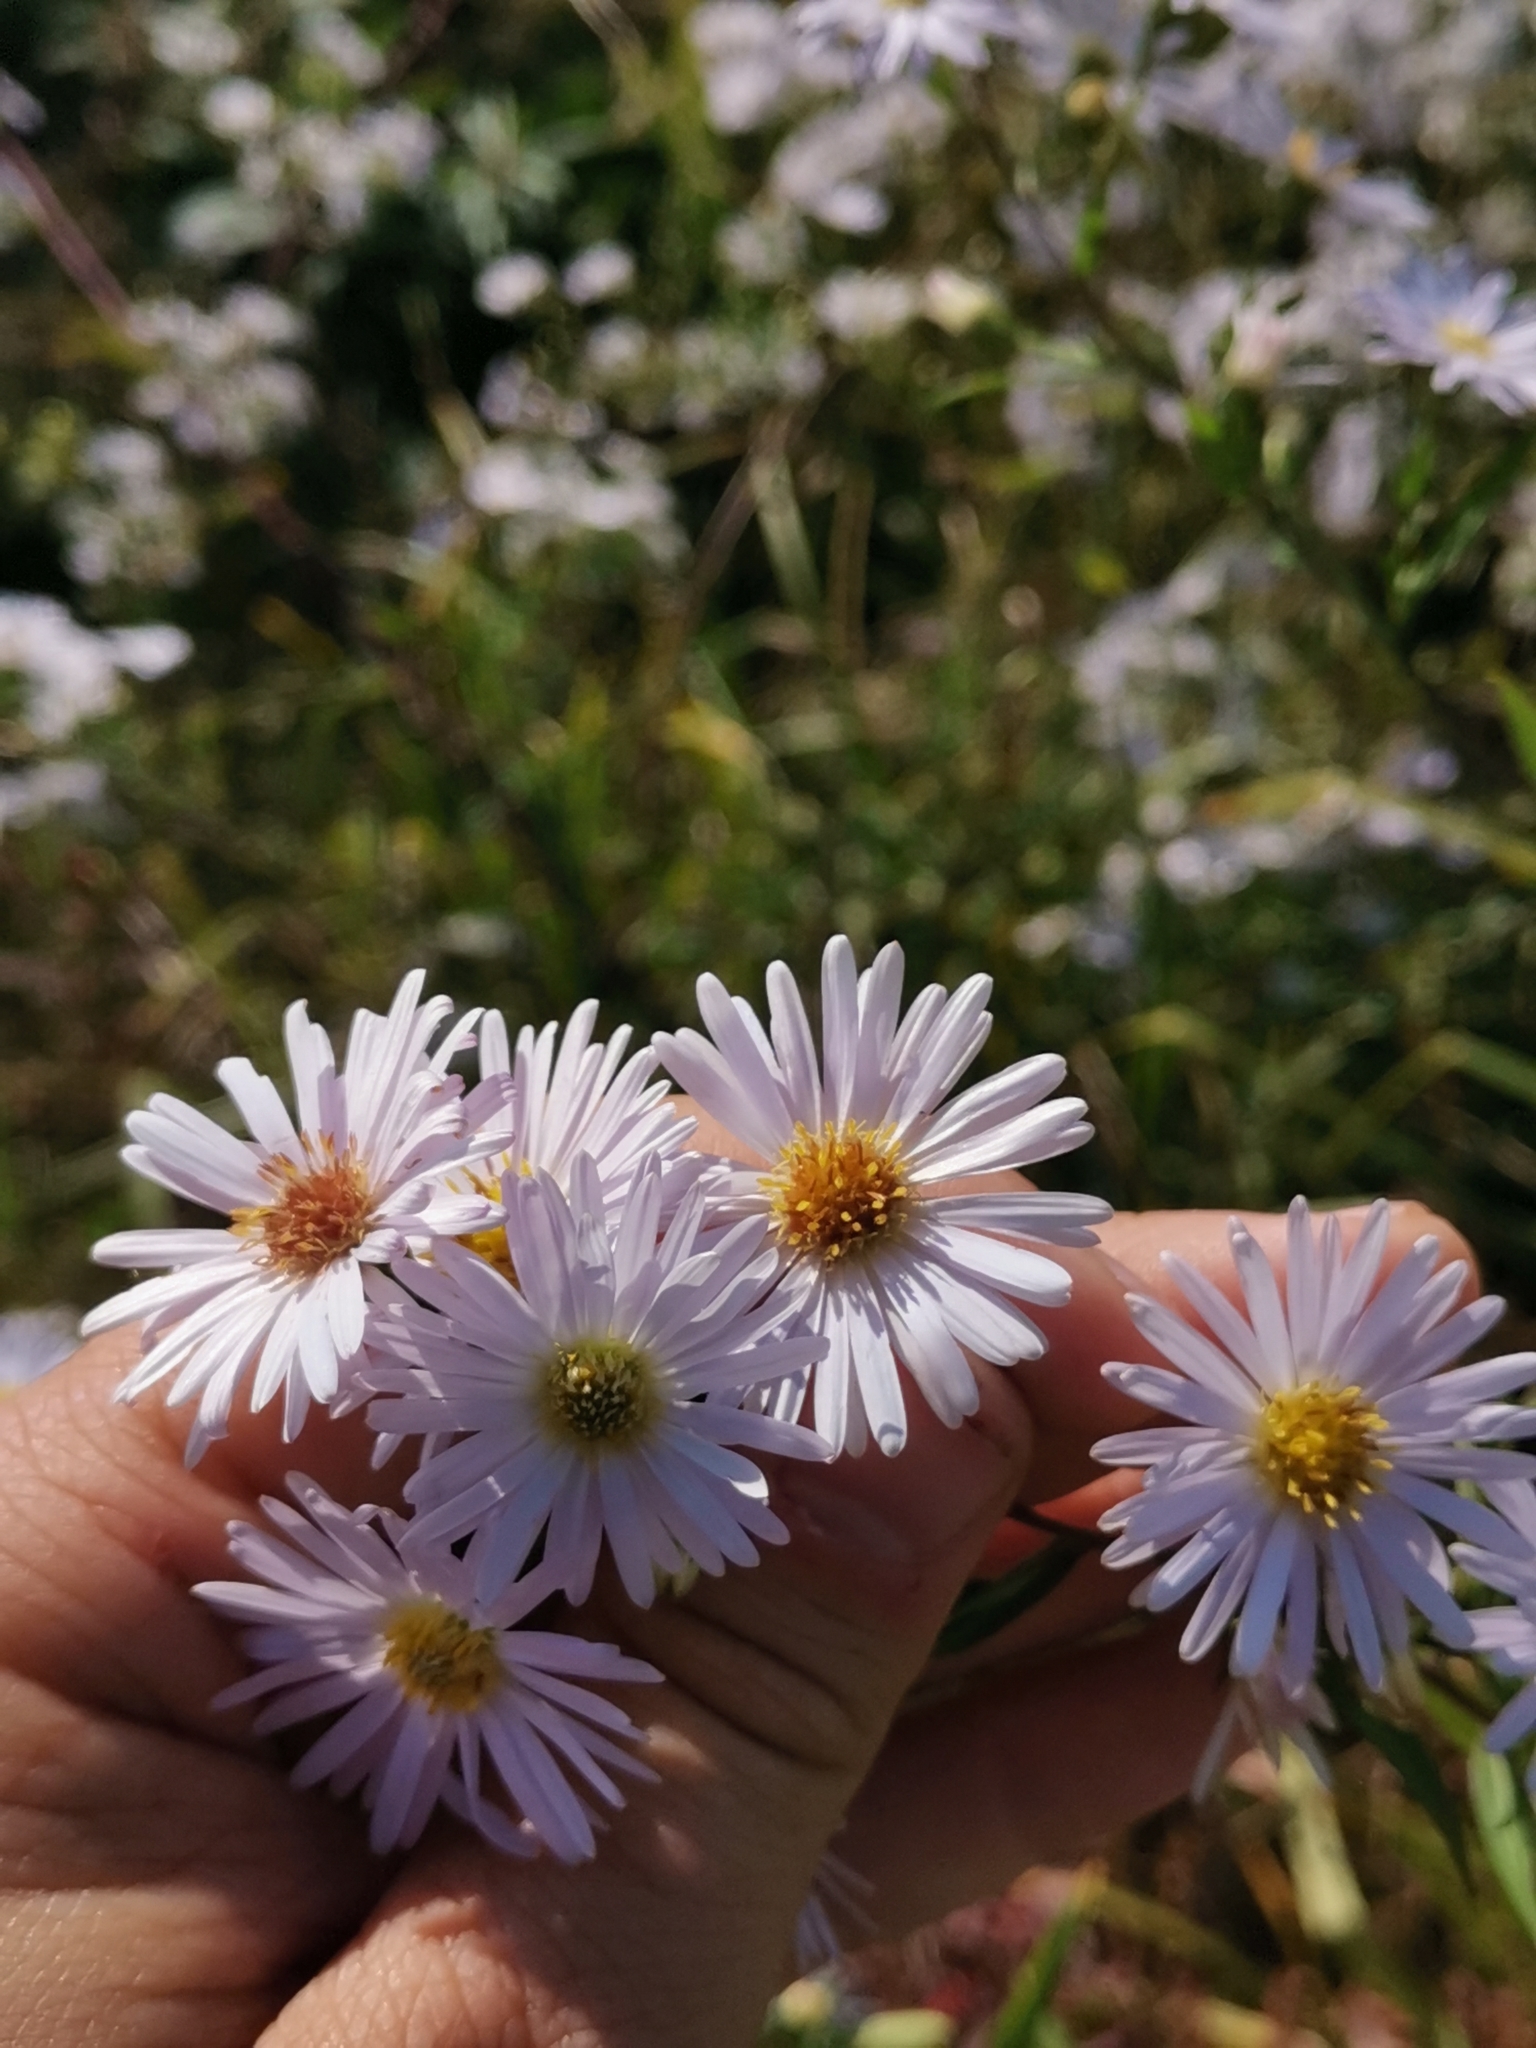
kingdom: Plantae
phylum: Tracheophyta
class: Magnoliopsida
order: Asterales
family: Asteraceae
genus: Symphyotrichum
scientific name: Symphyotrichum novi-belgii
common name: Michaelmas daisy
